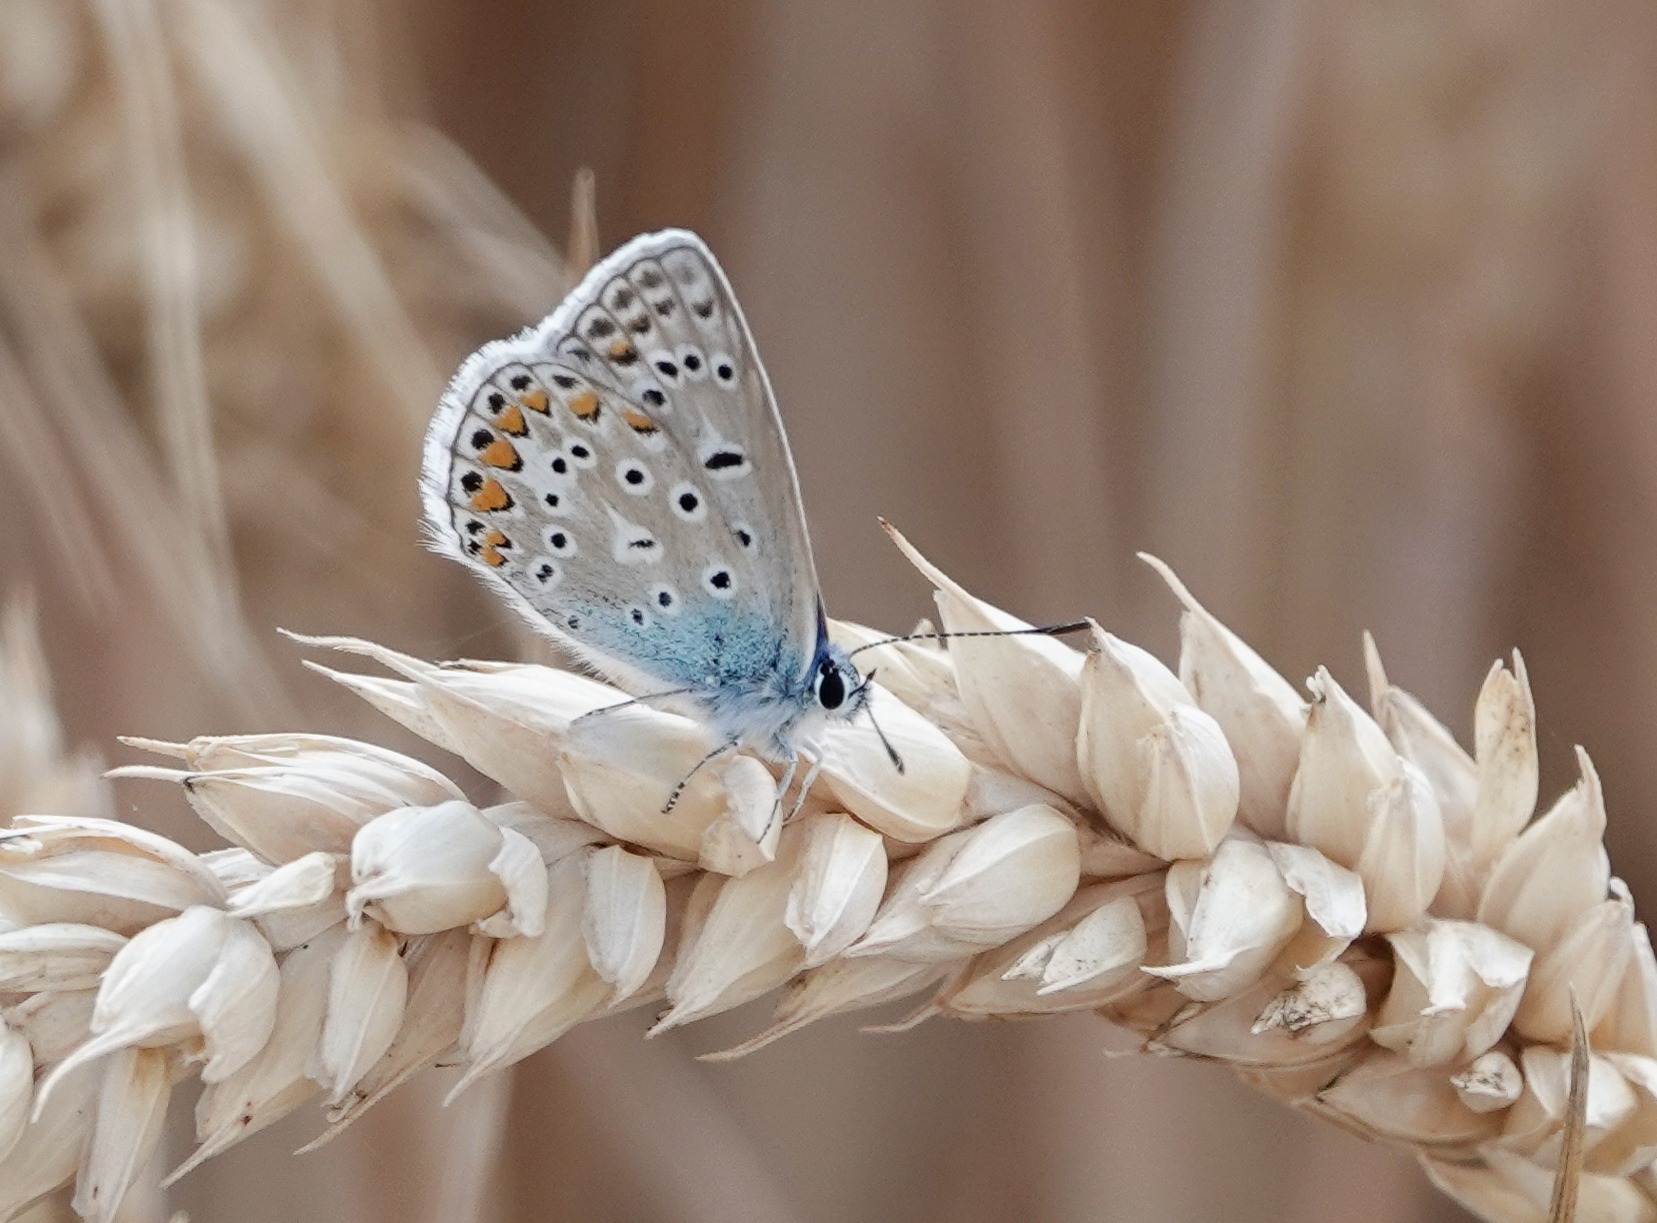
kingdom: Animalia
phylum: Arthropoda
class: Insecta
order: Lepidoptera
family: Lycaenidae
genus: Polyommatus
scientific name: Polyommatus icarus
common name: Common blue
